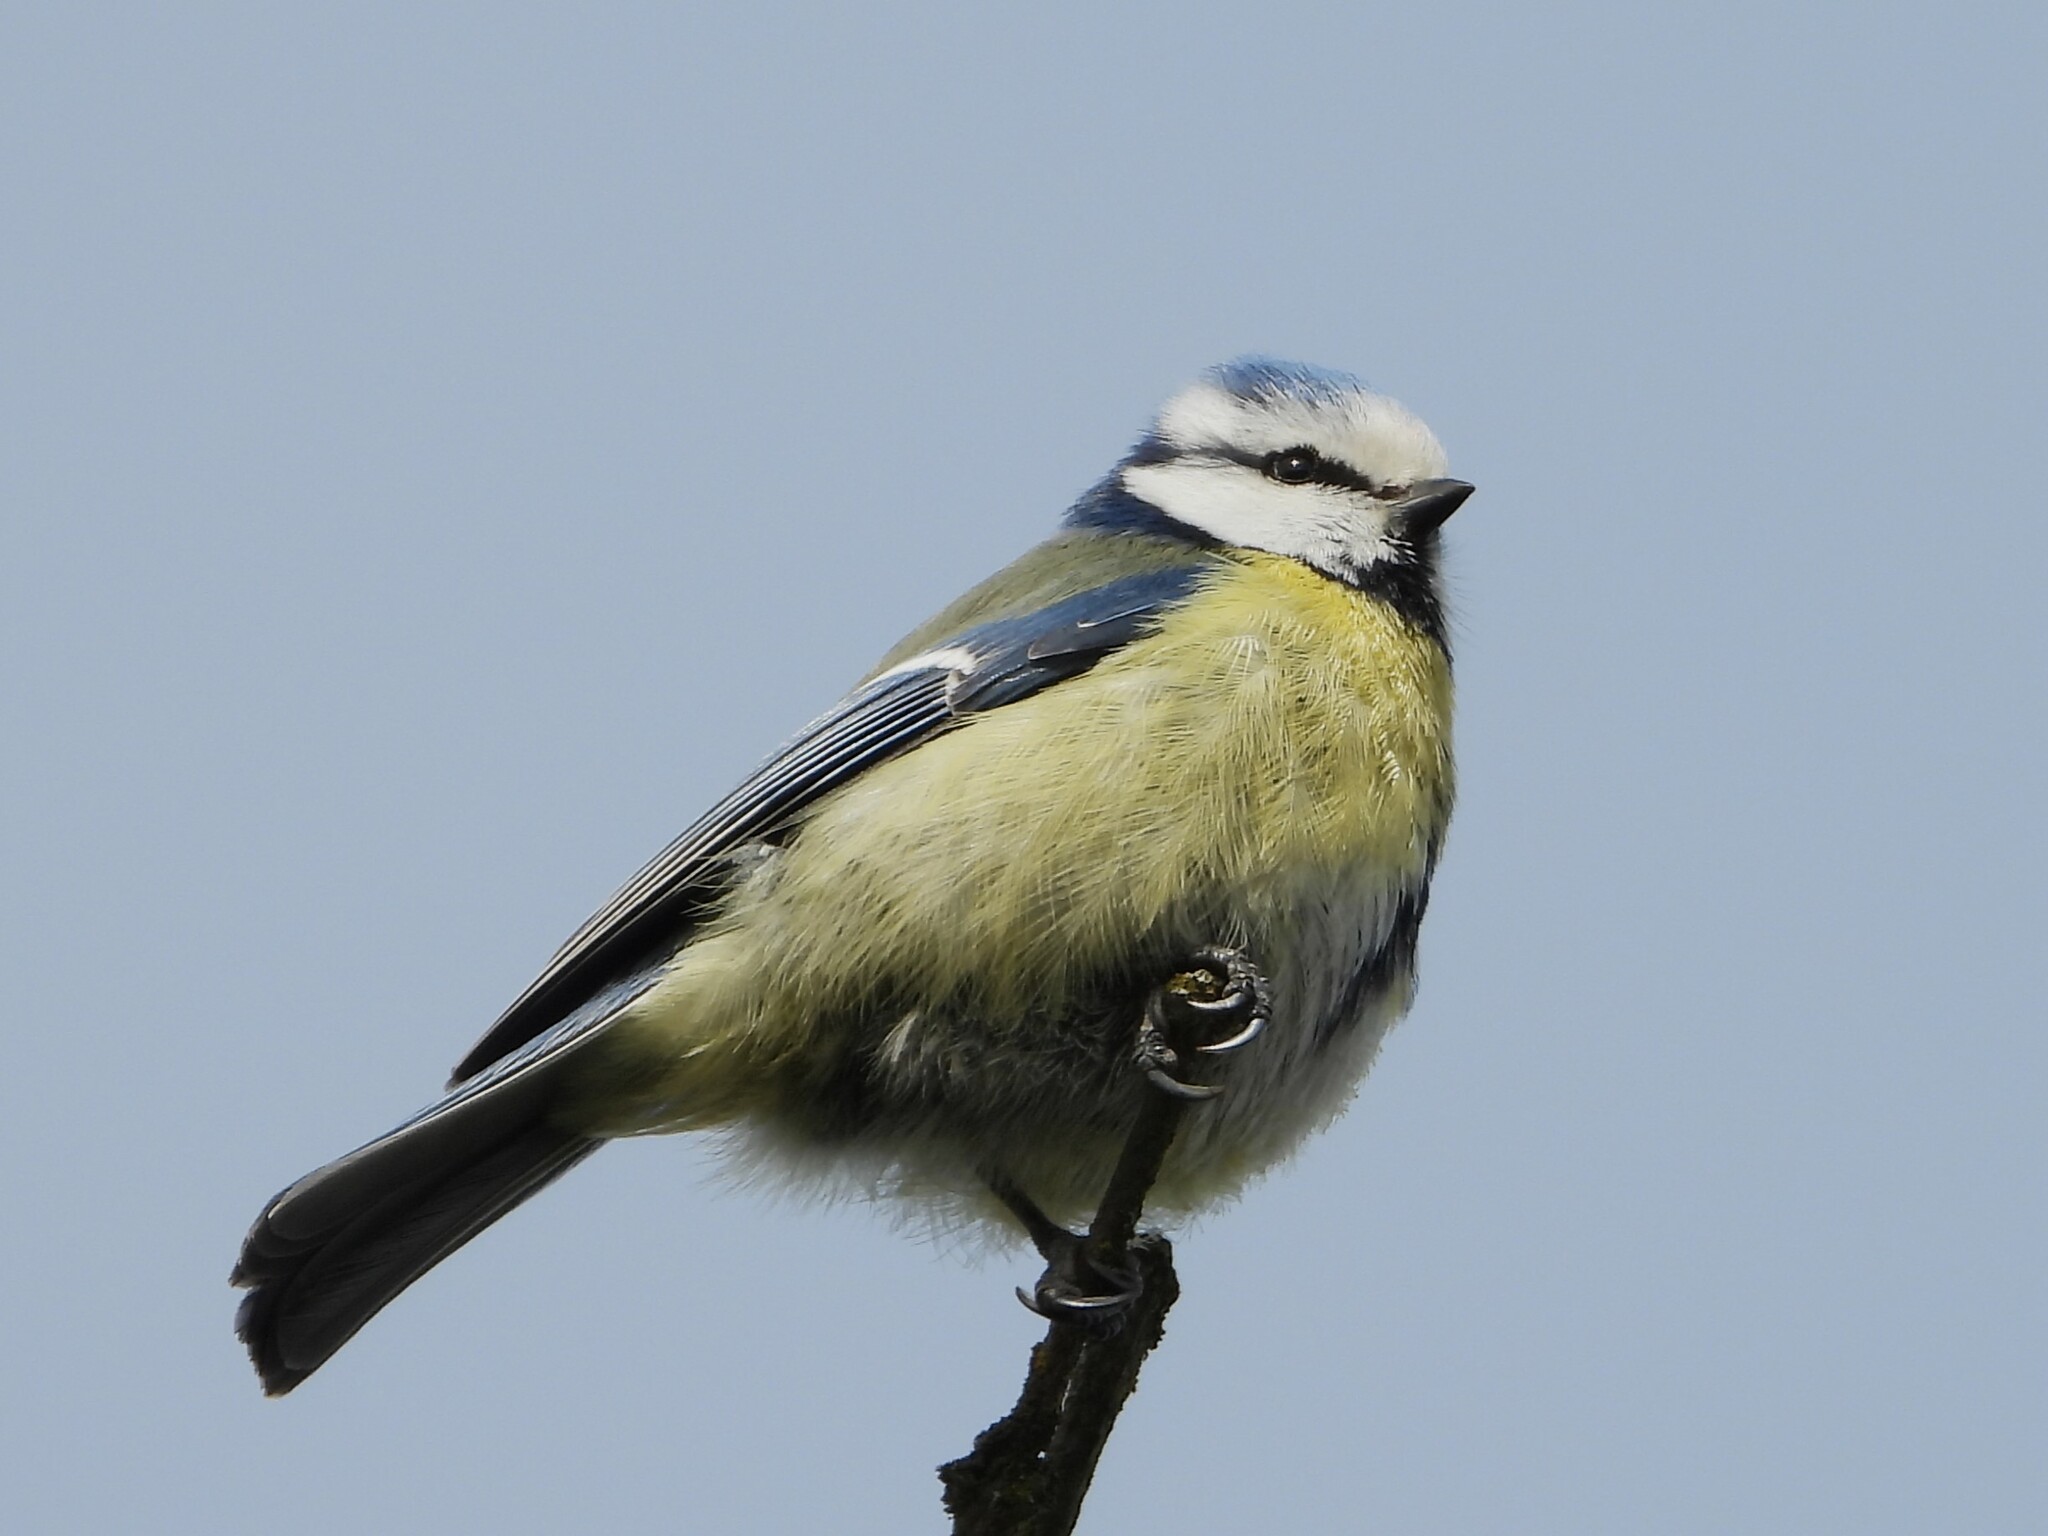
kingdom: Animalia
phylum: Chordata
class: Aves
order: Passeriformes
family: Paridae
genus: Cyanistes
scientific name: Cyanistes caeruleus
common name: Eurasian blue tit
